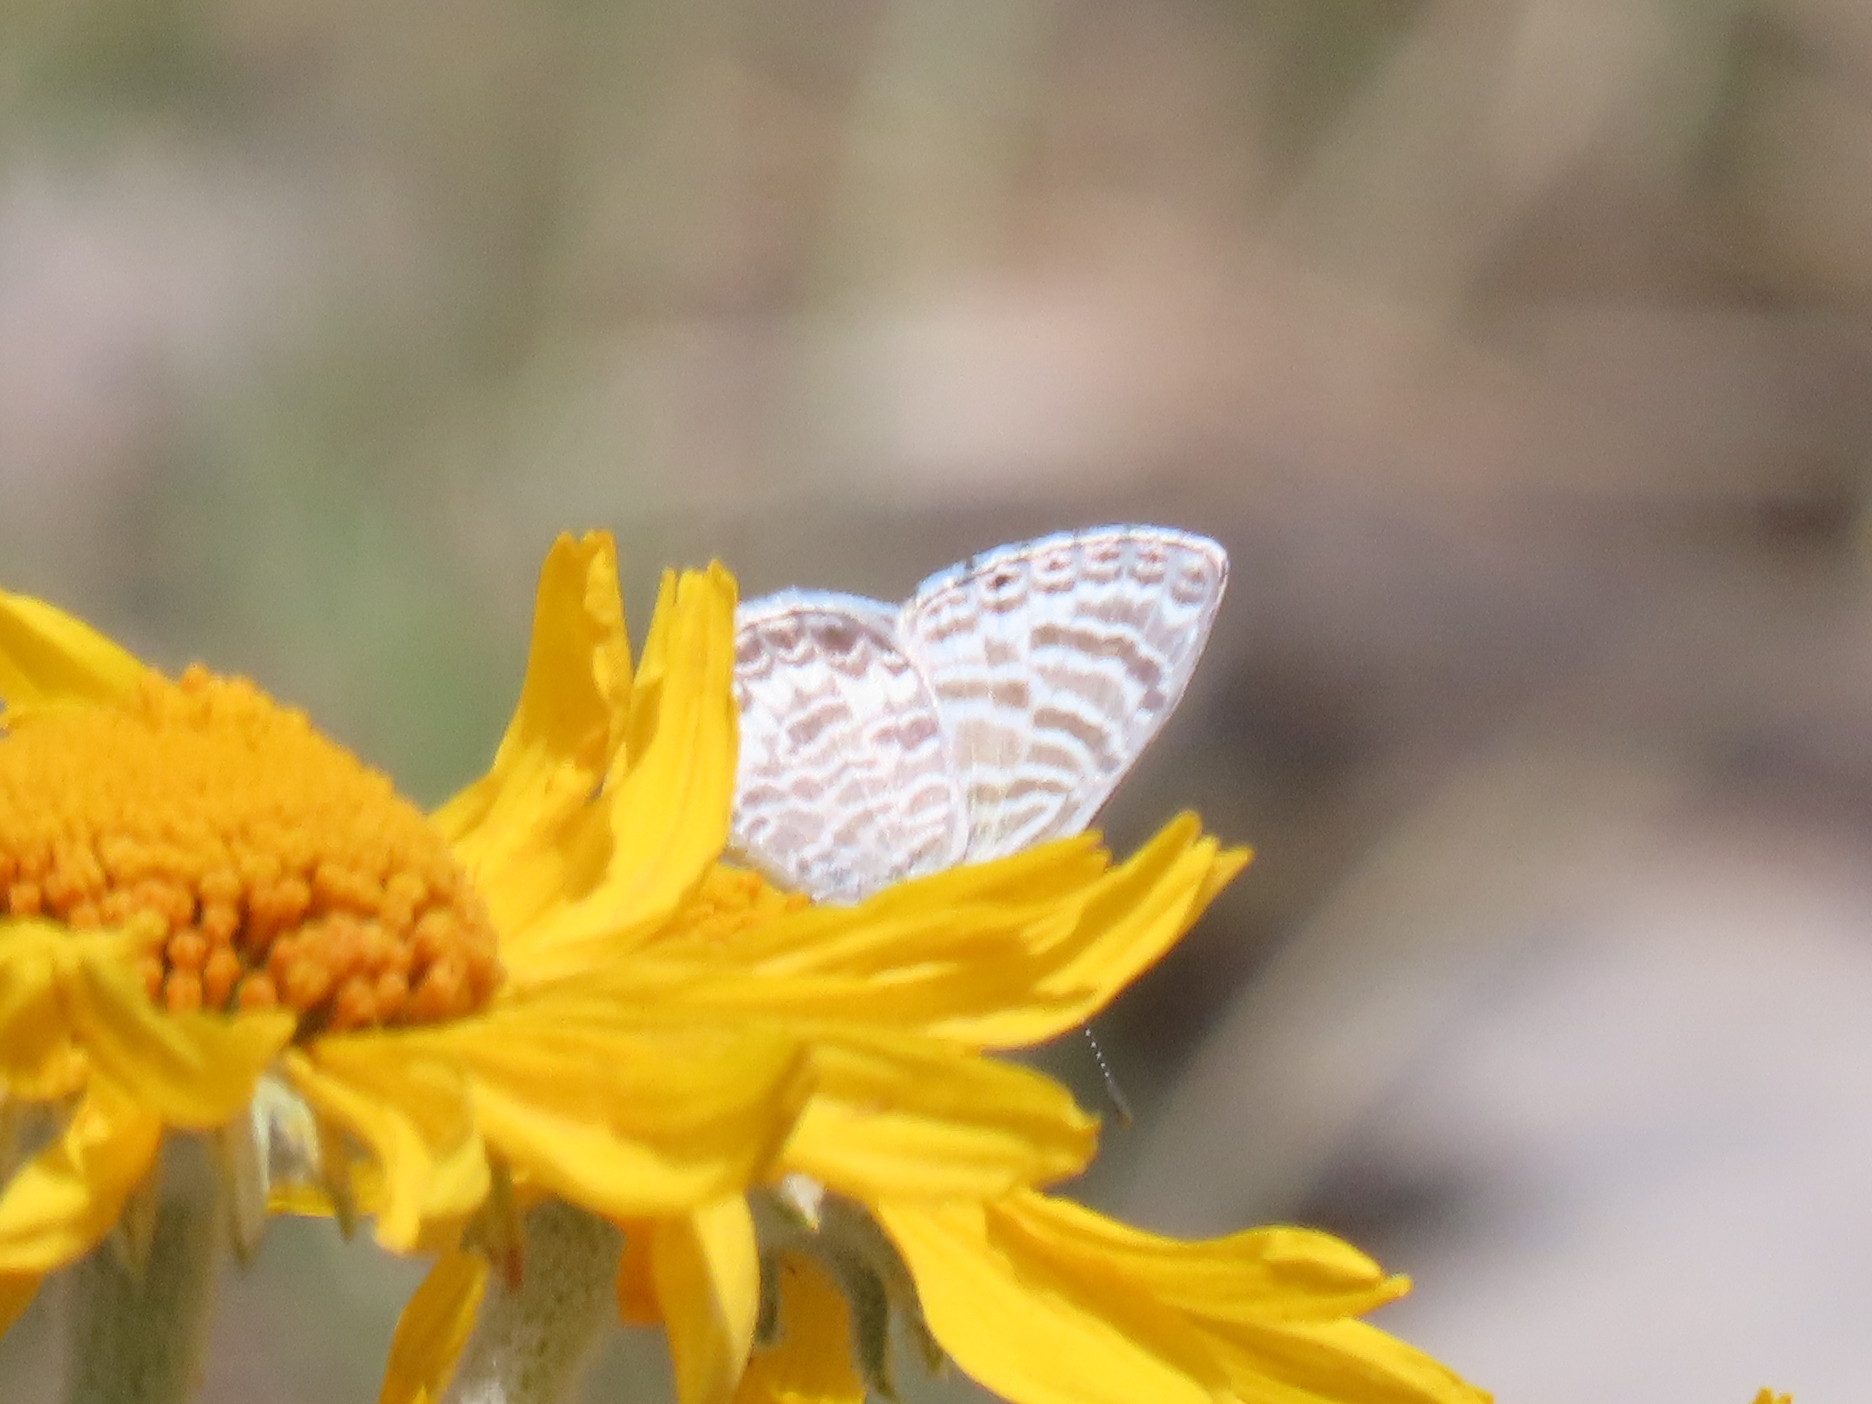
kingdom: Animalia
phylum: Arthropoda
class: Insecta
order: Lepidoptera
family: Lycaenidae
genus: Leptotes
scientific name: Leptotes marina
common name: Marine blue
